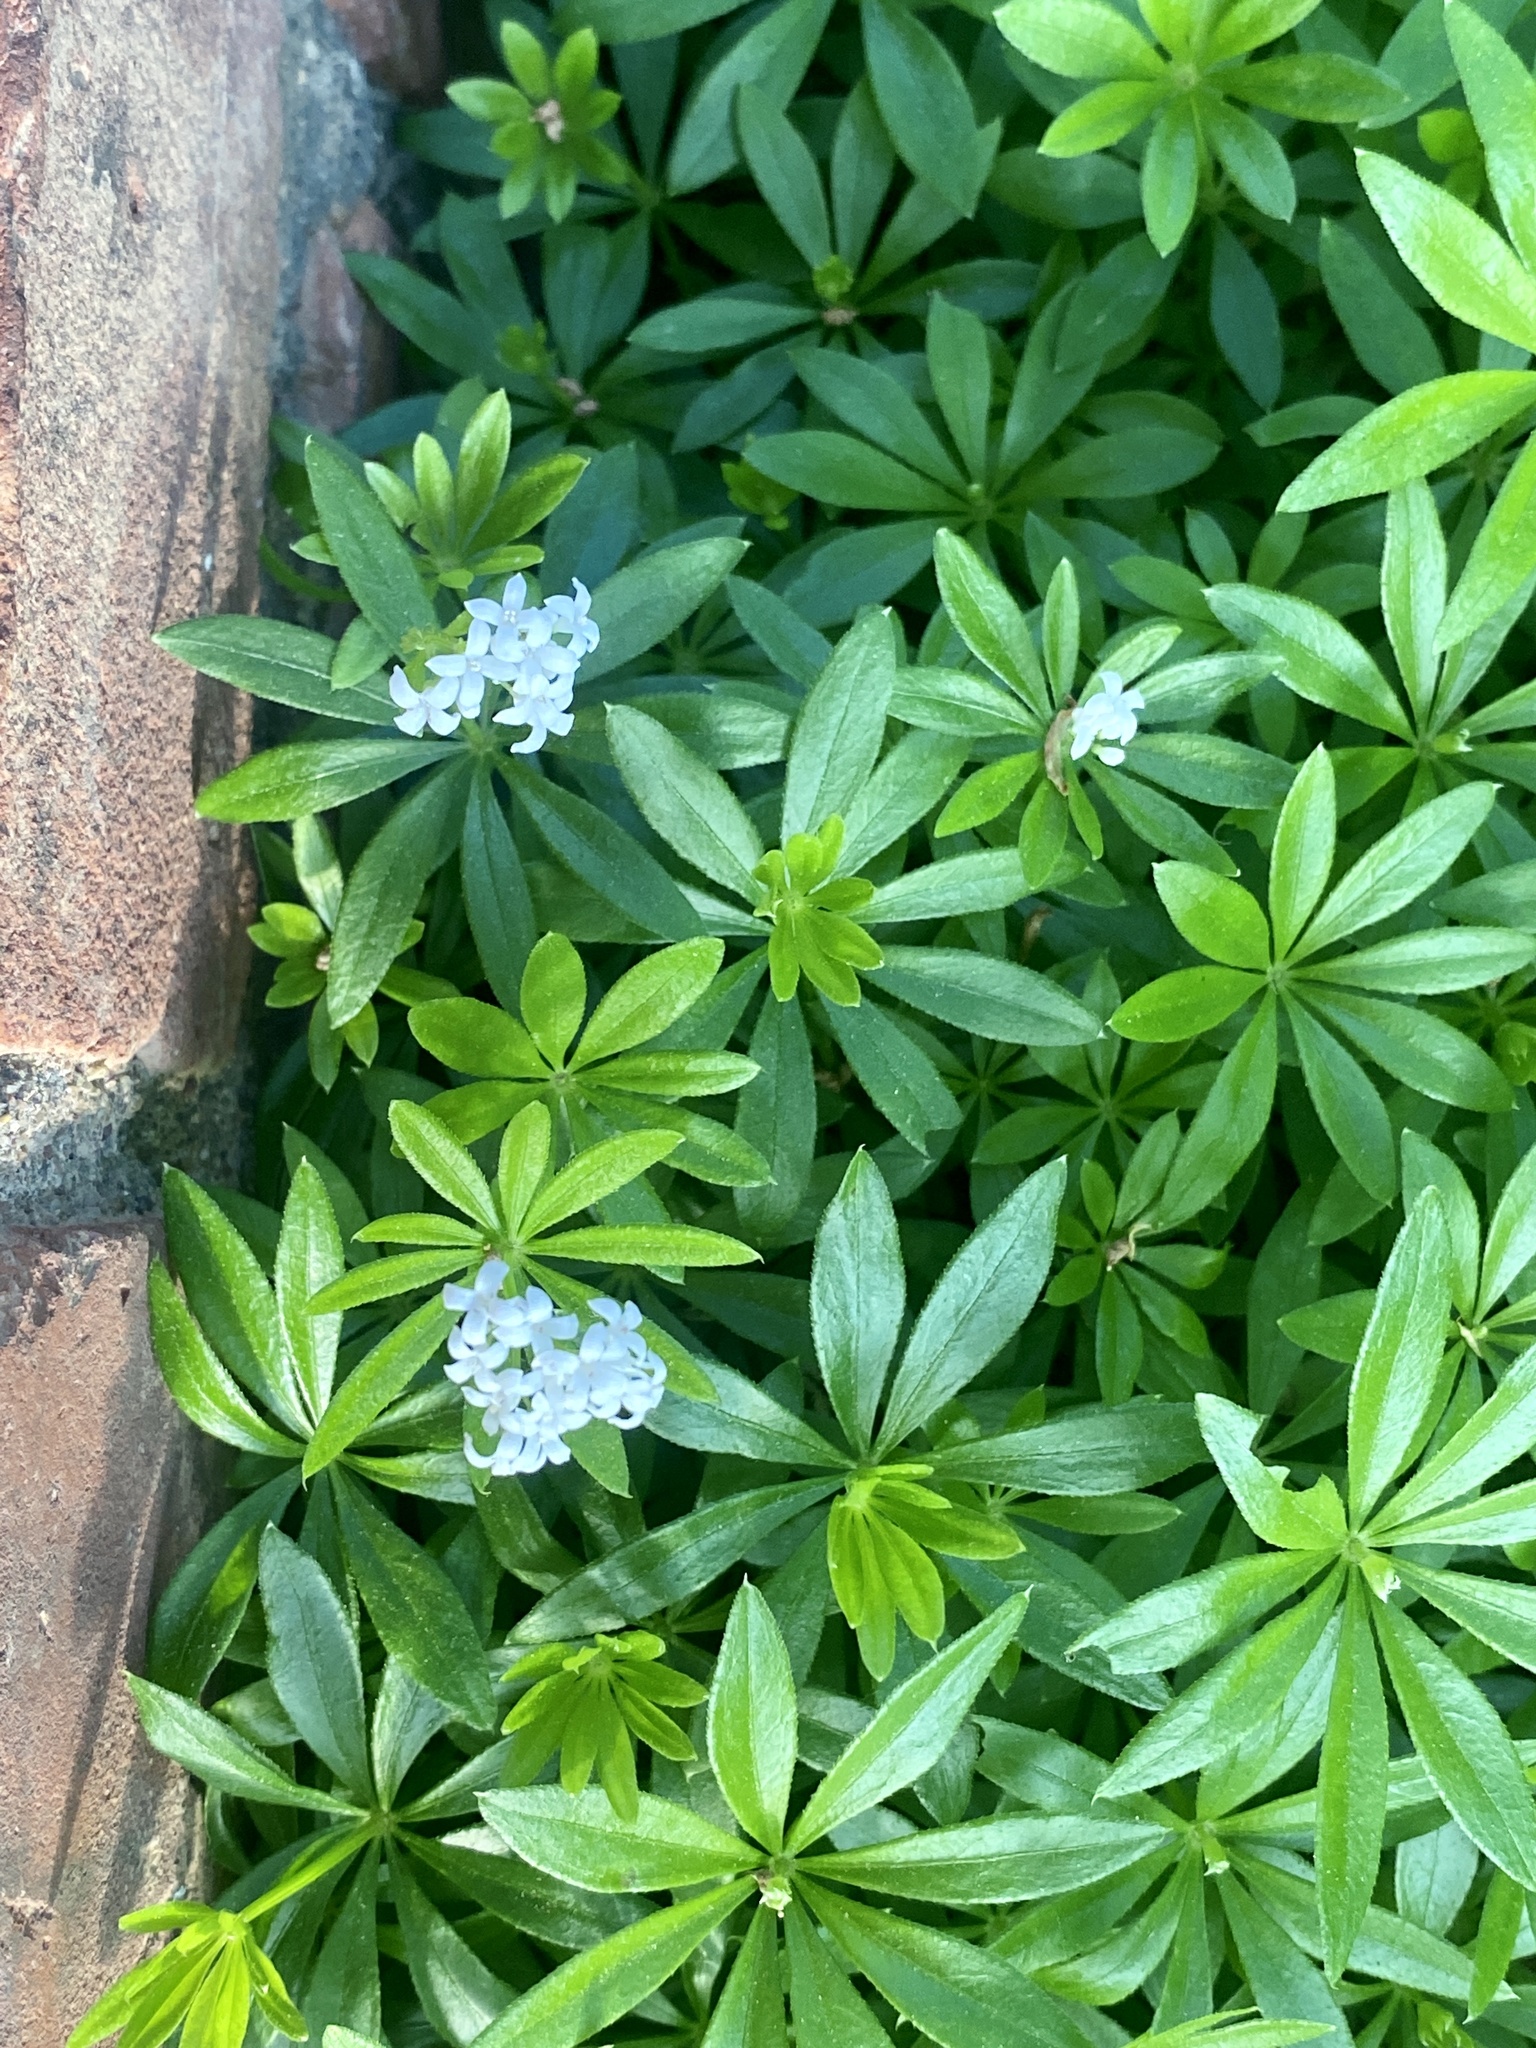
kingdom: Plantae
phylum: Tracheophyta
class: Magnoliopsida
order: Gentianales
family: Rubiaceae
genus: Galium
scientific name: Galium odoratum
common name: Sweet woodruff
